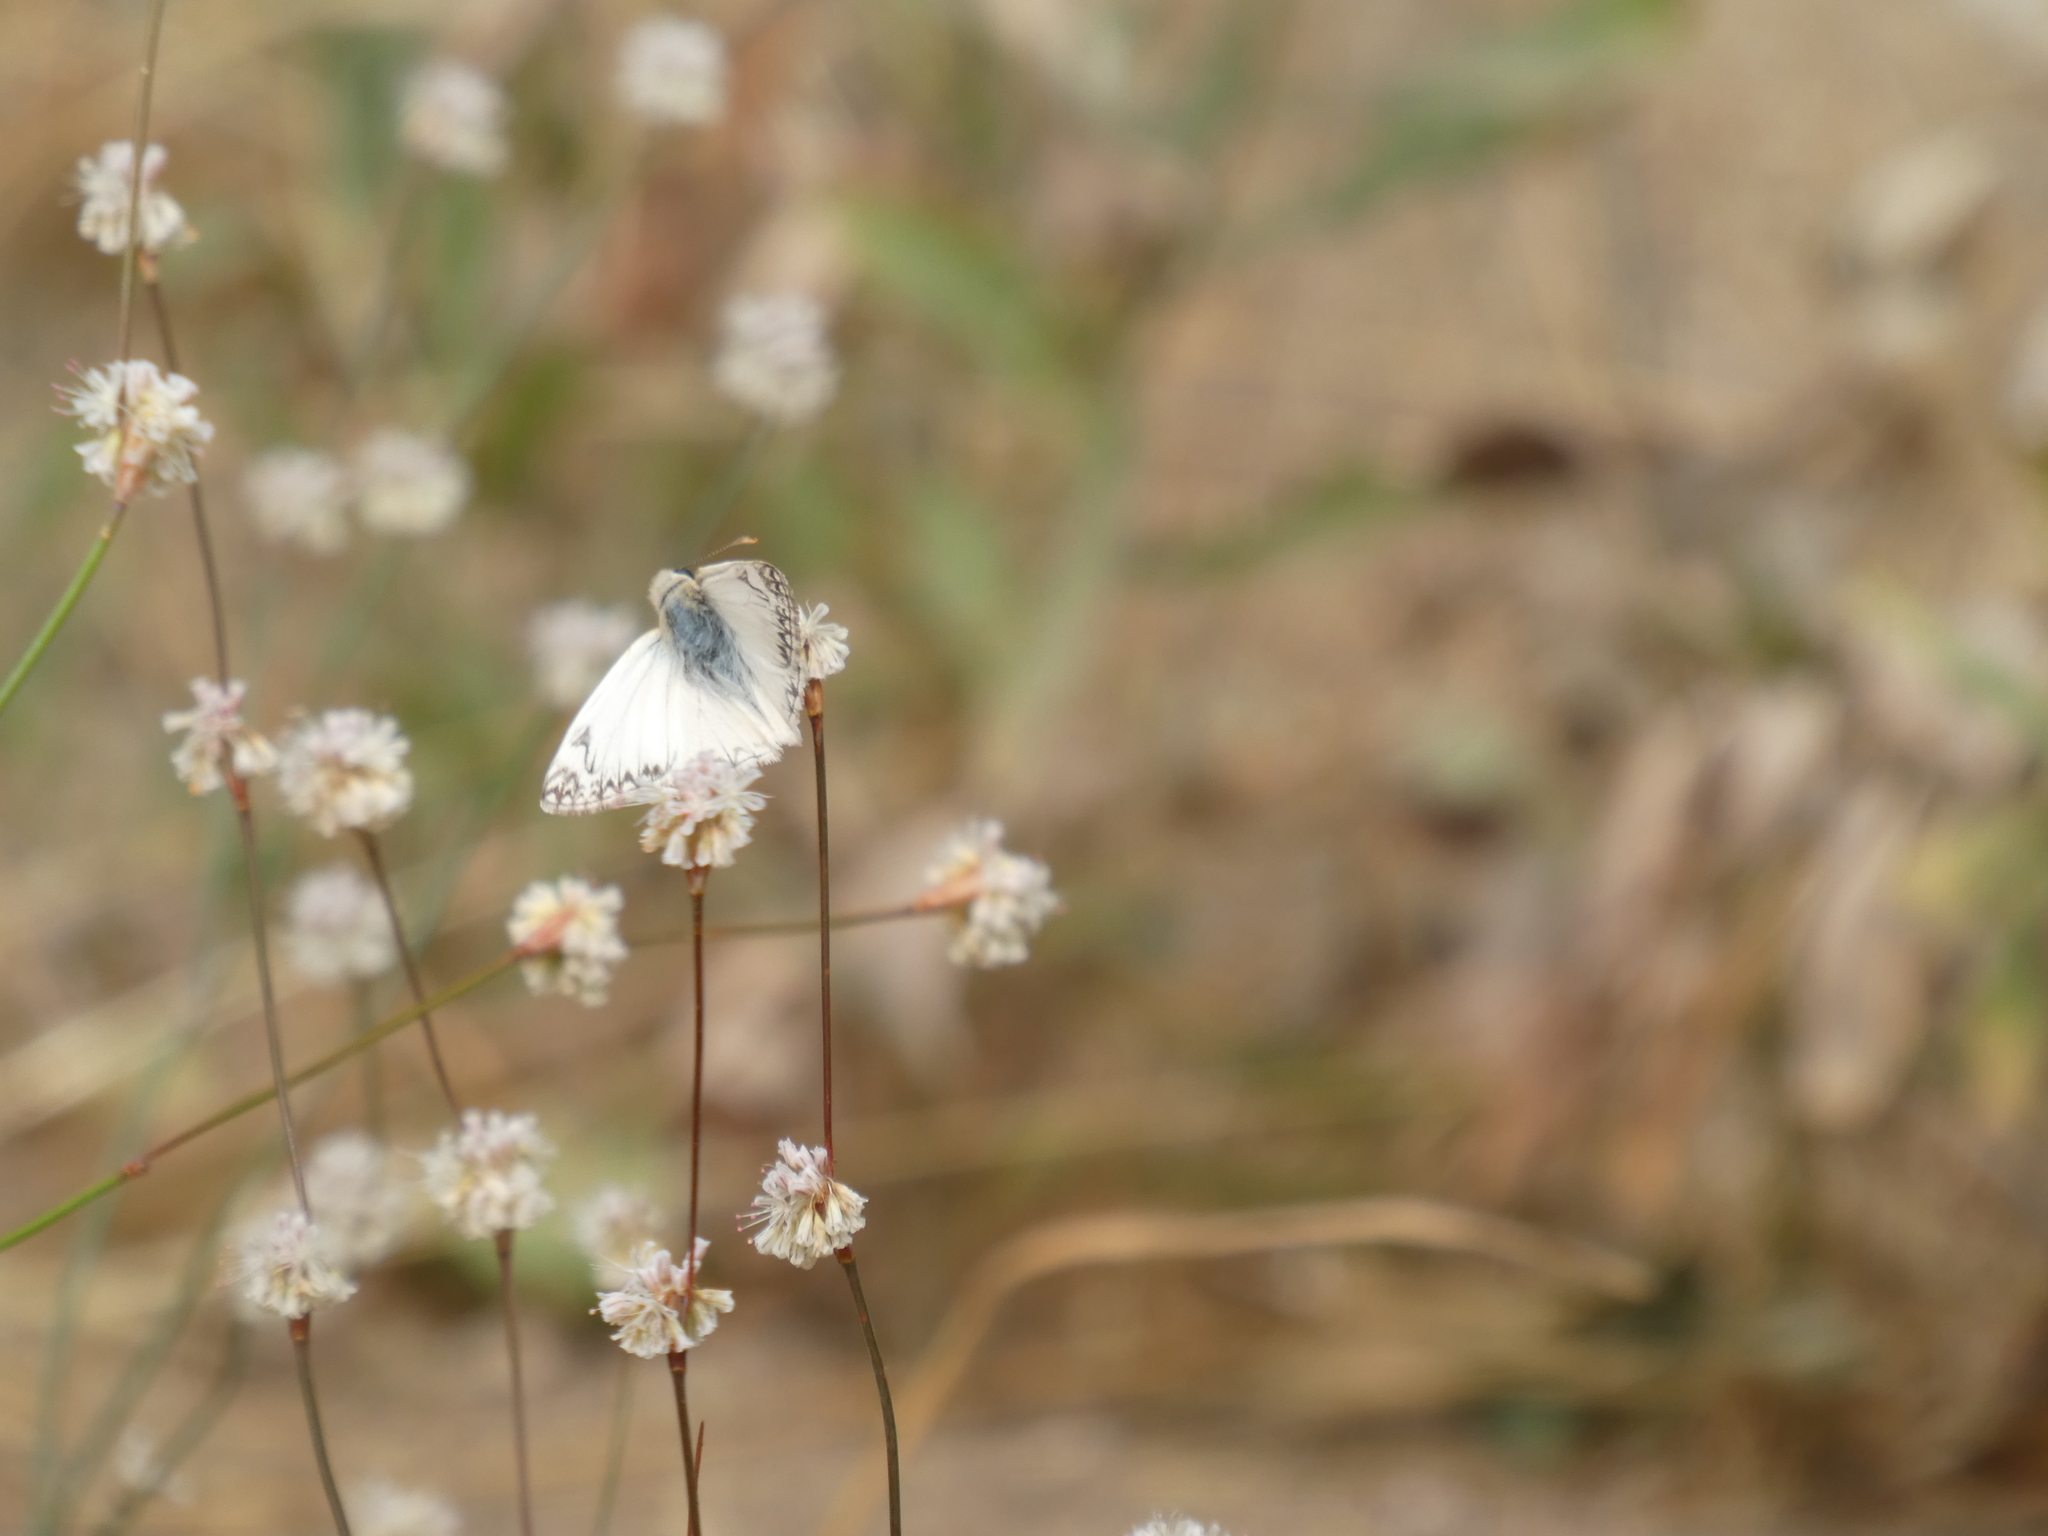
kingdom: Animalia
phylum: Arthropoda
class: Insecta
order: Lepidoptera
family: Hesperiidae
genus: Heliopetes
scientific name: Heliopetes ericetorum
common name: Northern white-skipper
